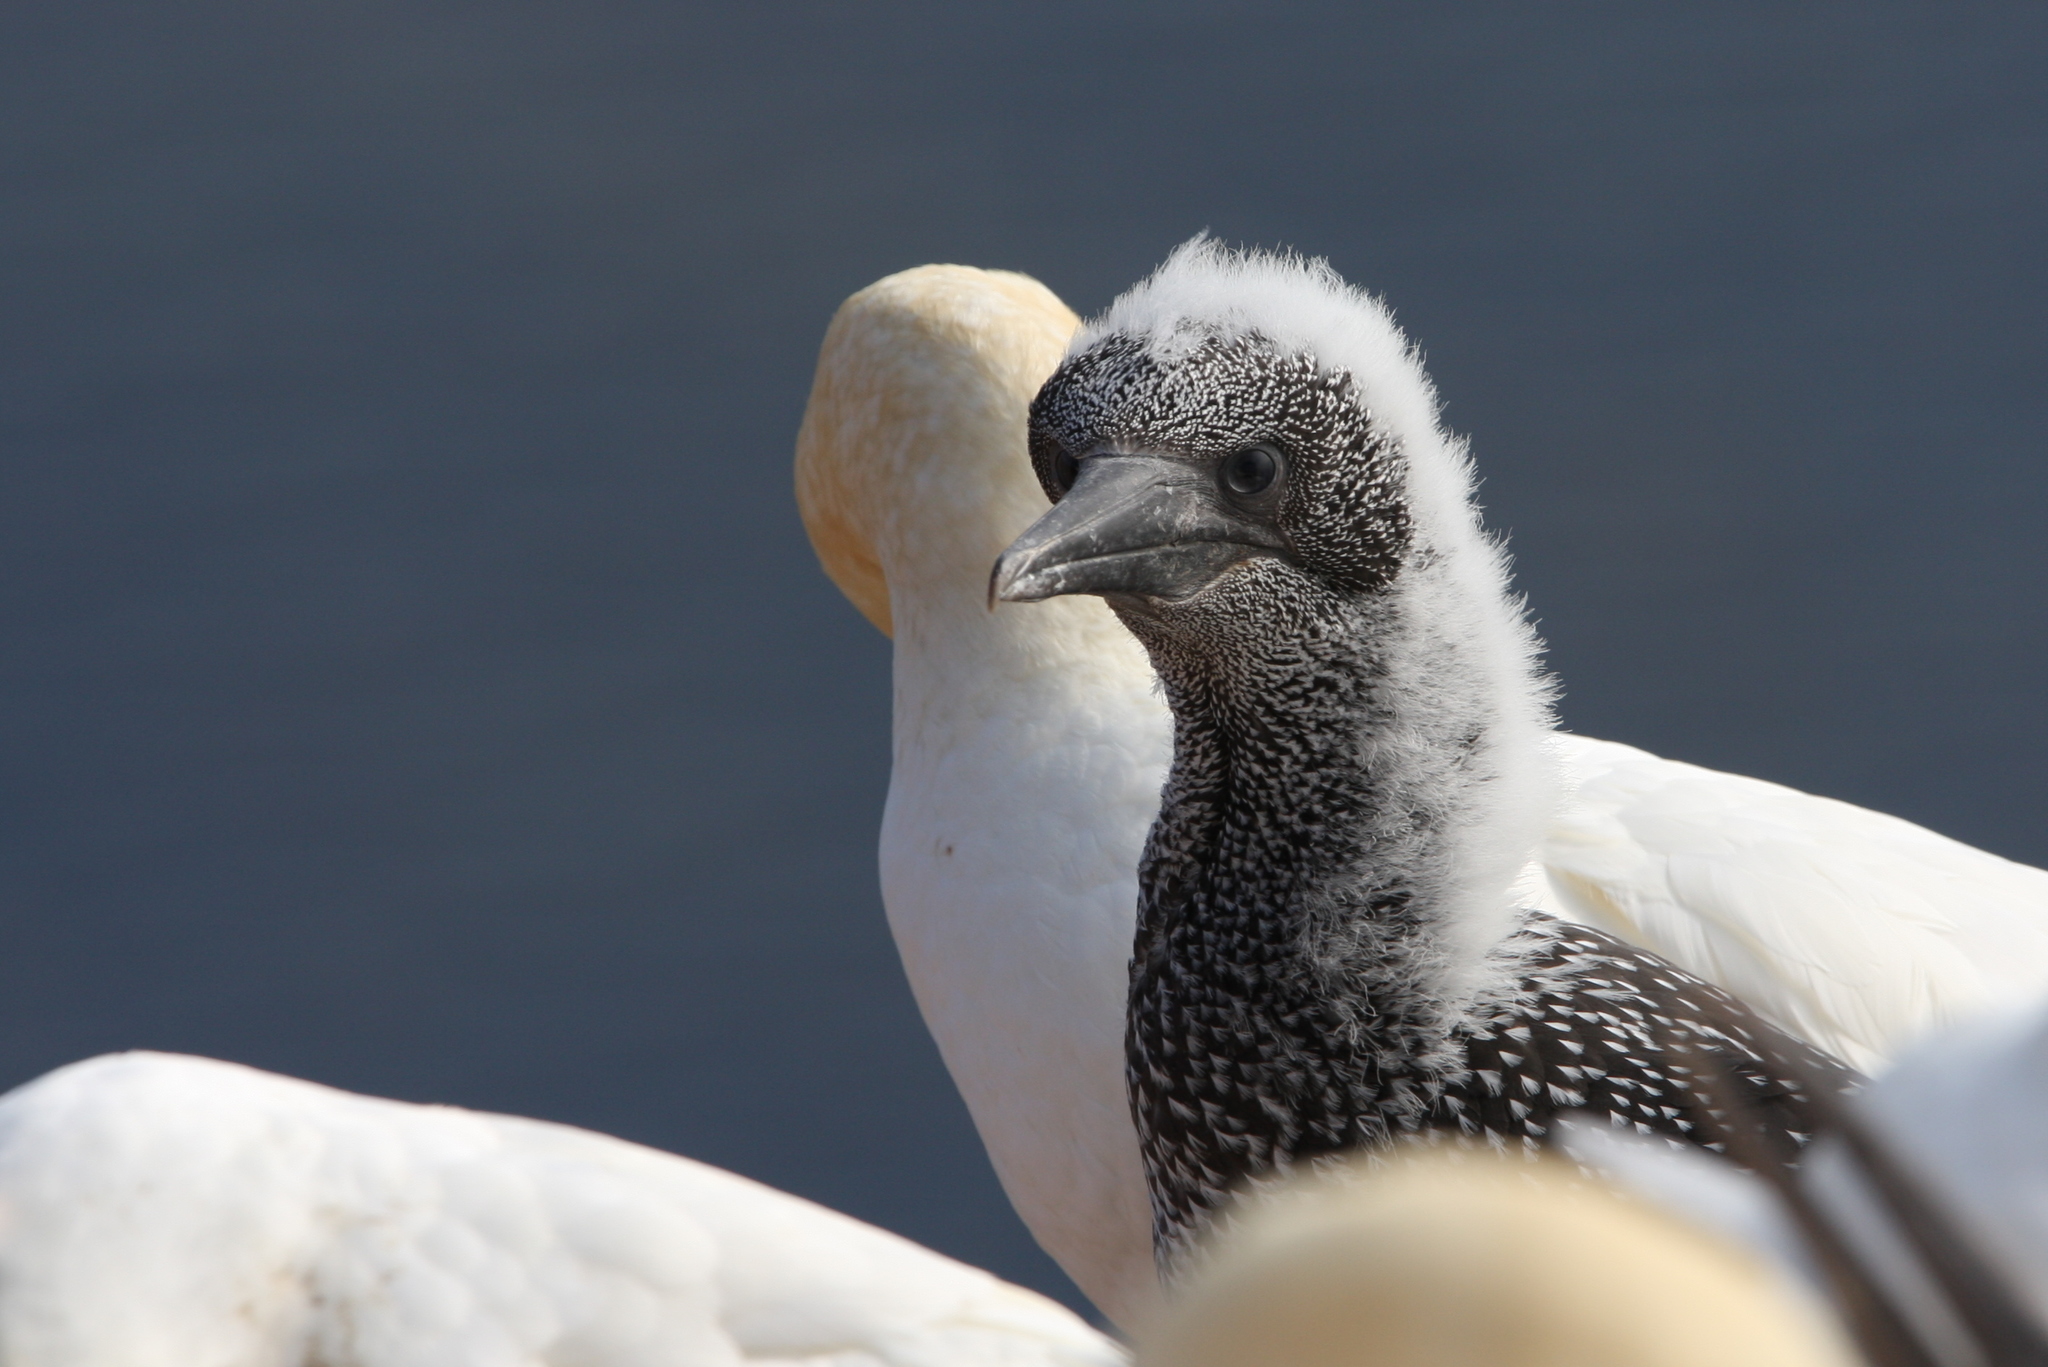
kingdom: Animalia
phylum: Chordata
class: Aves
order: Suliformes
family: Sulidae
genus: Morus
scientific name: Morus bassanus
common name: Northern gannet
